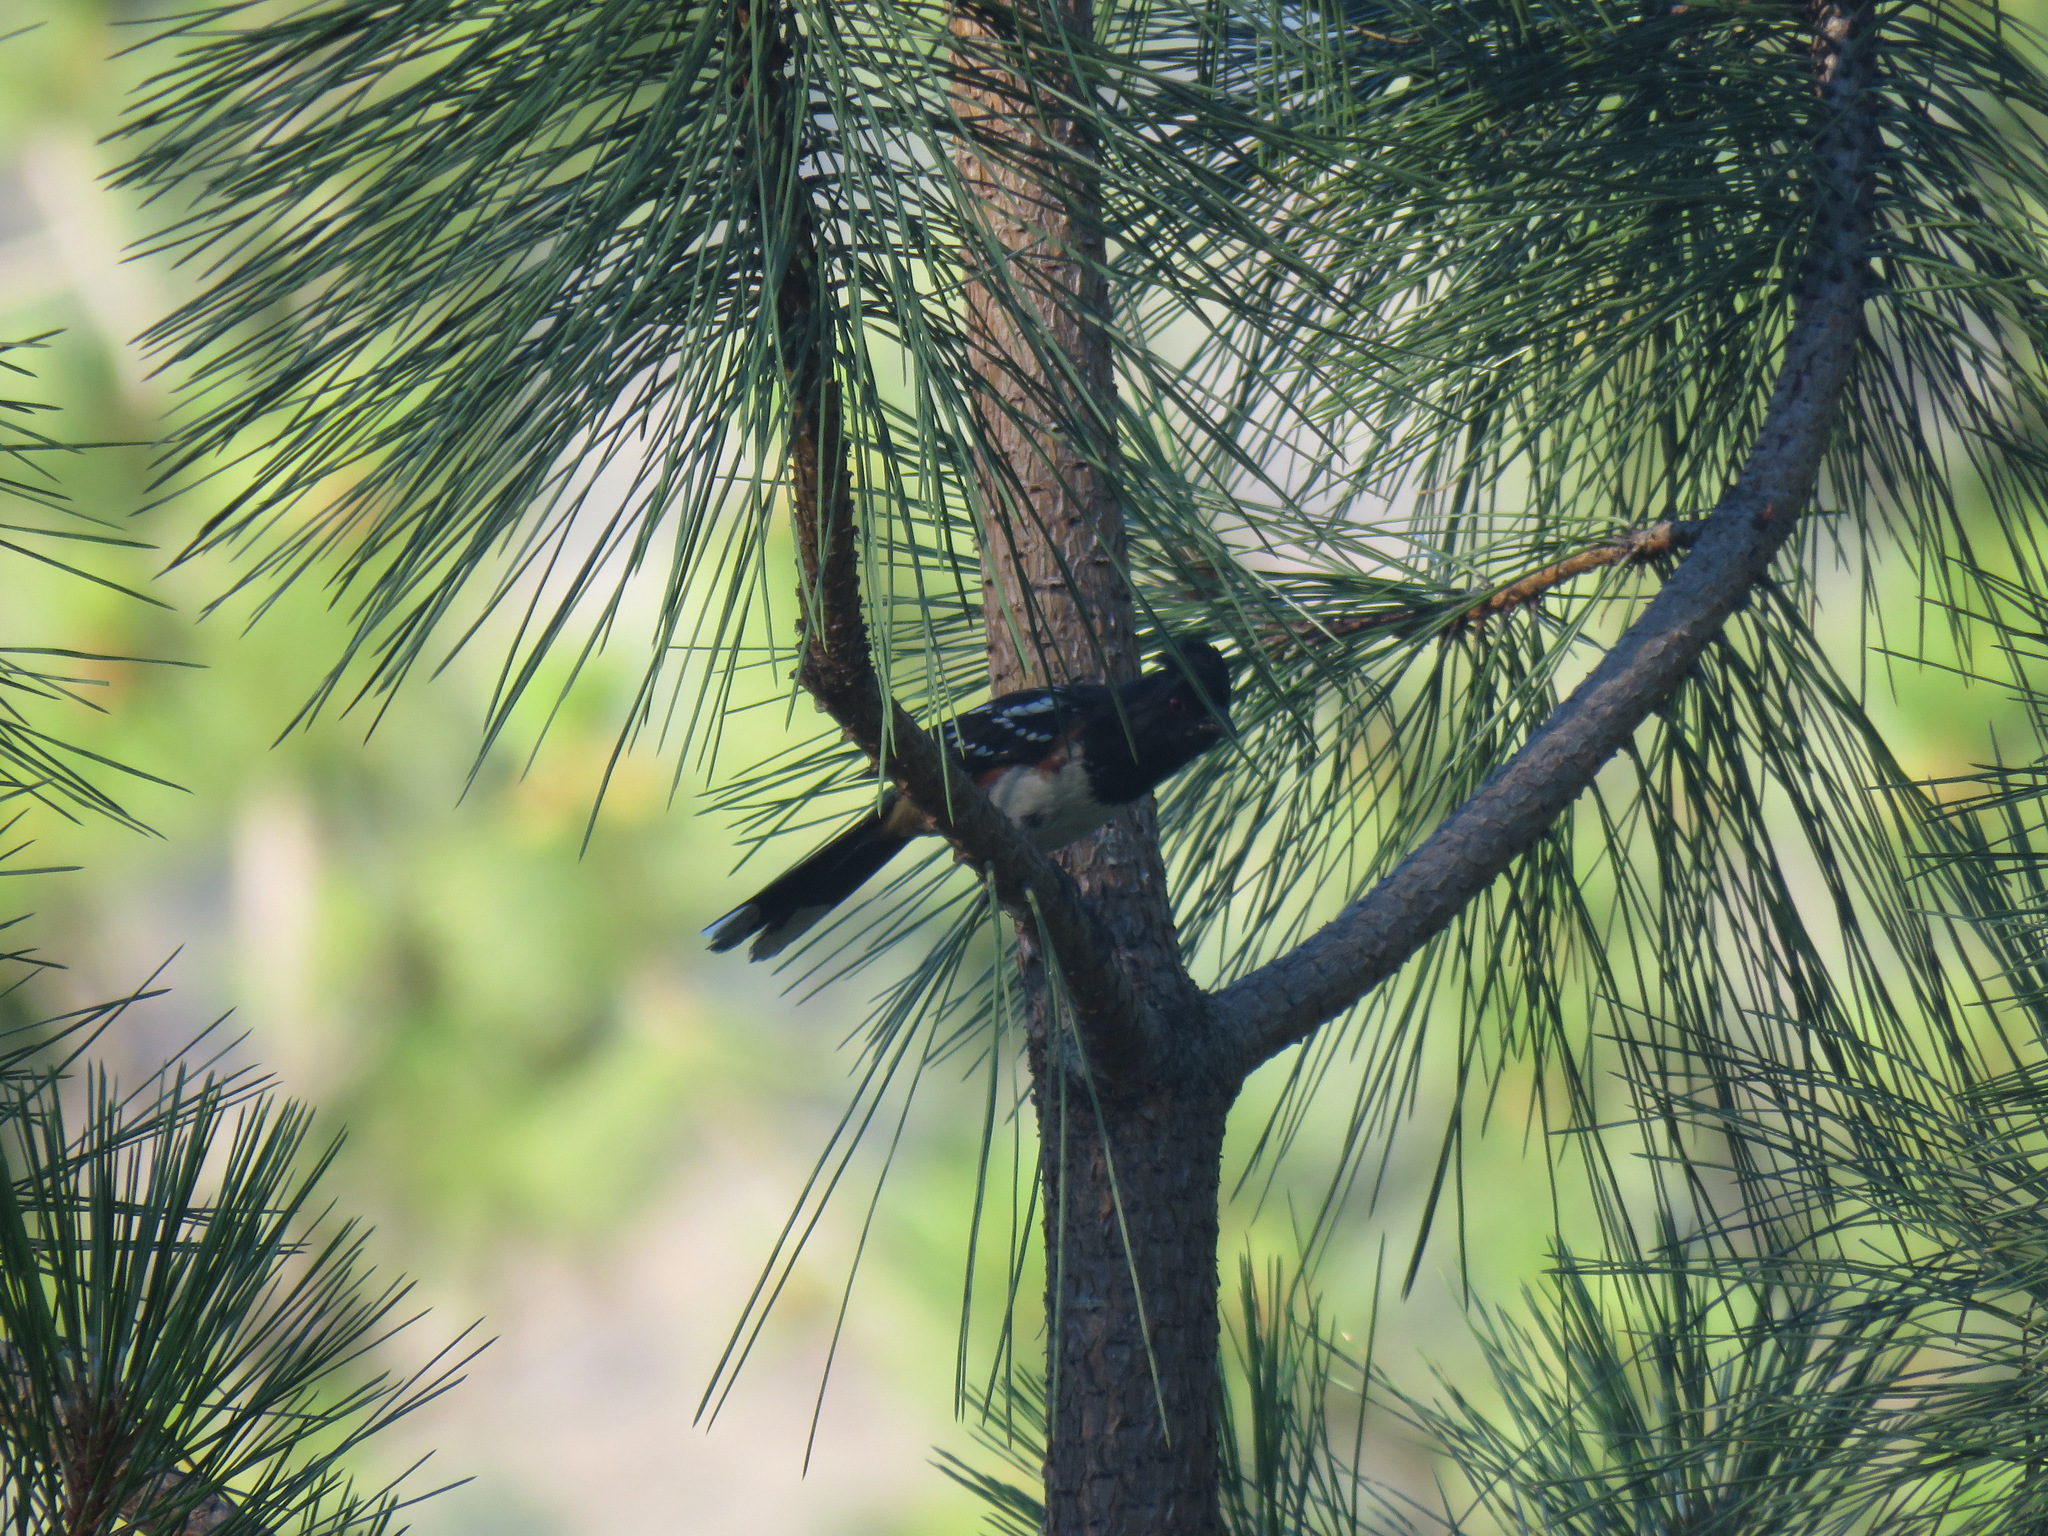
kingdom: Animalia
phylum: Chordata
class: Aves
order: Passeriformes
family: Passerellidae
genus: Pipilo
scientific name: Pipilo maculatus
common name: Spotted towhee
